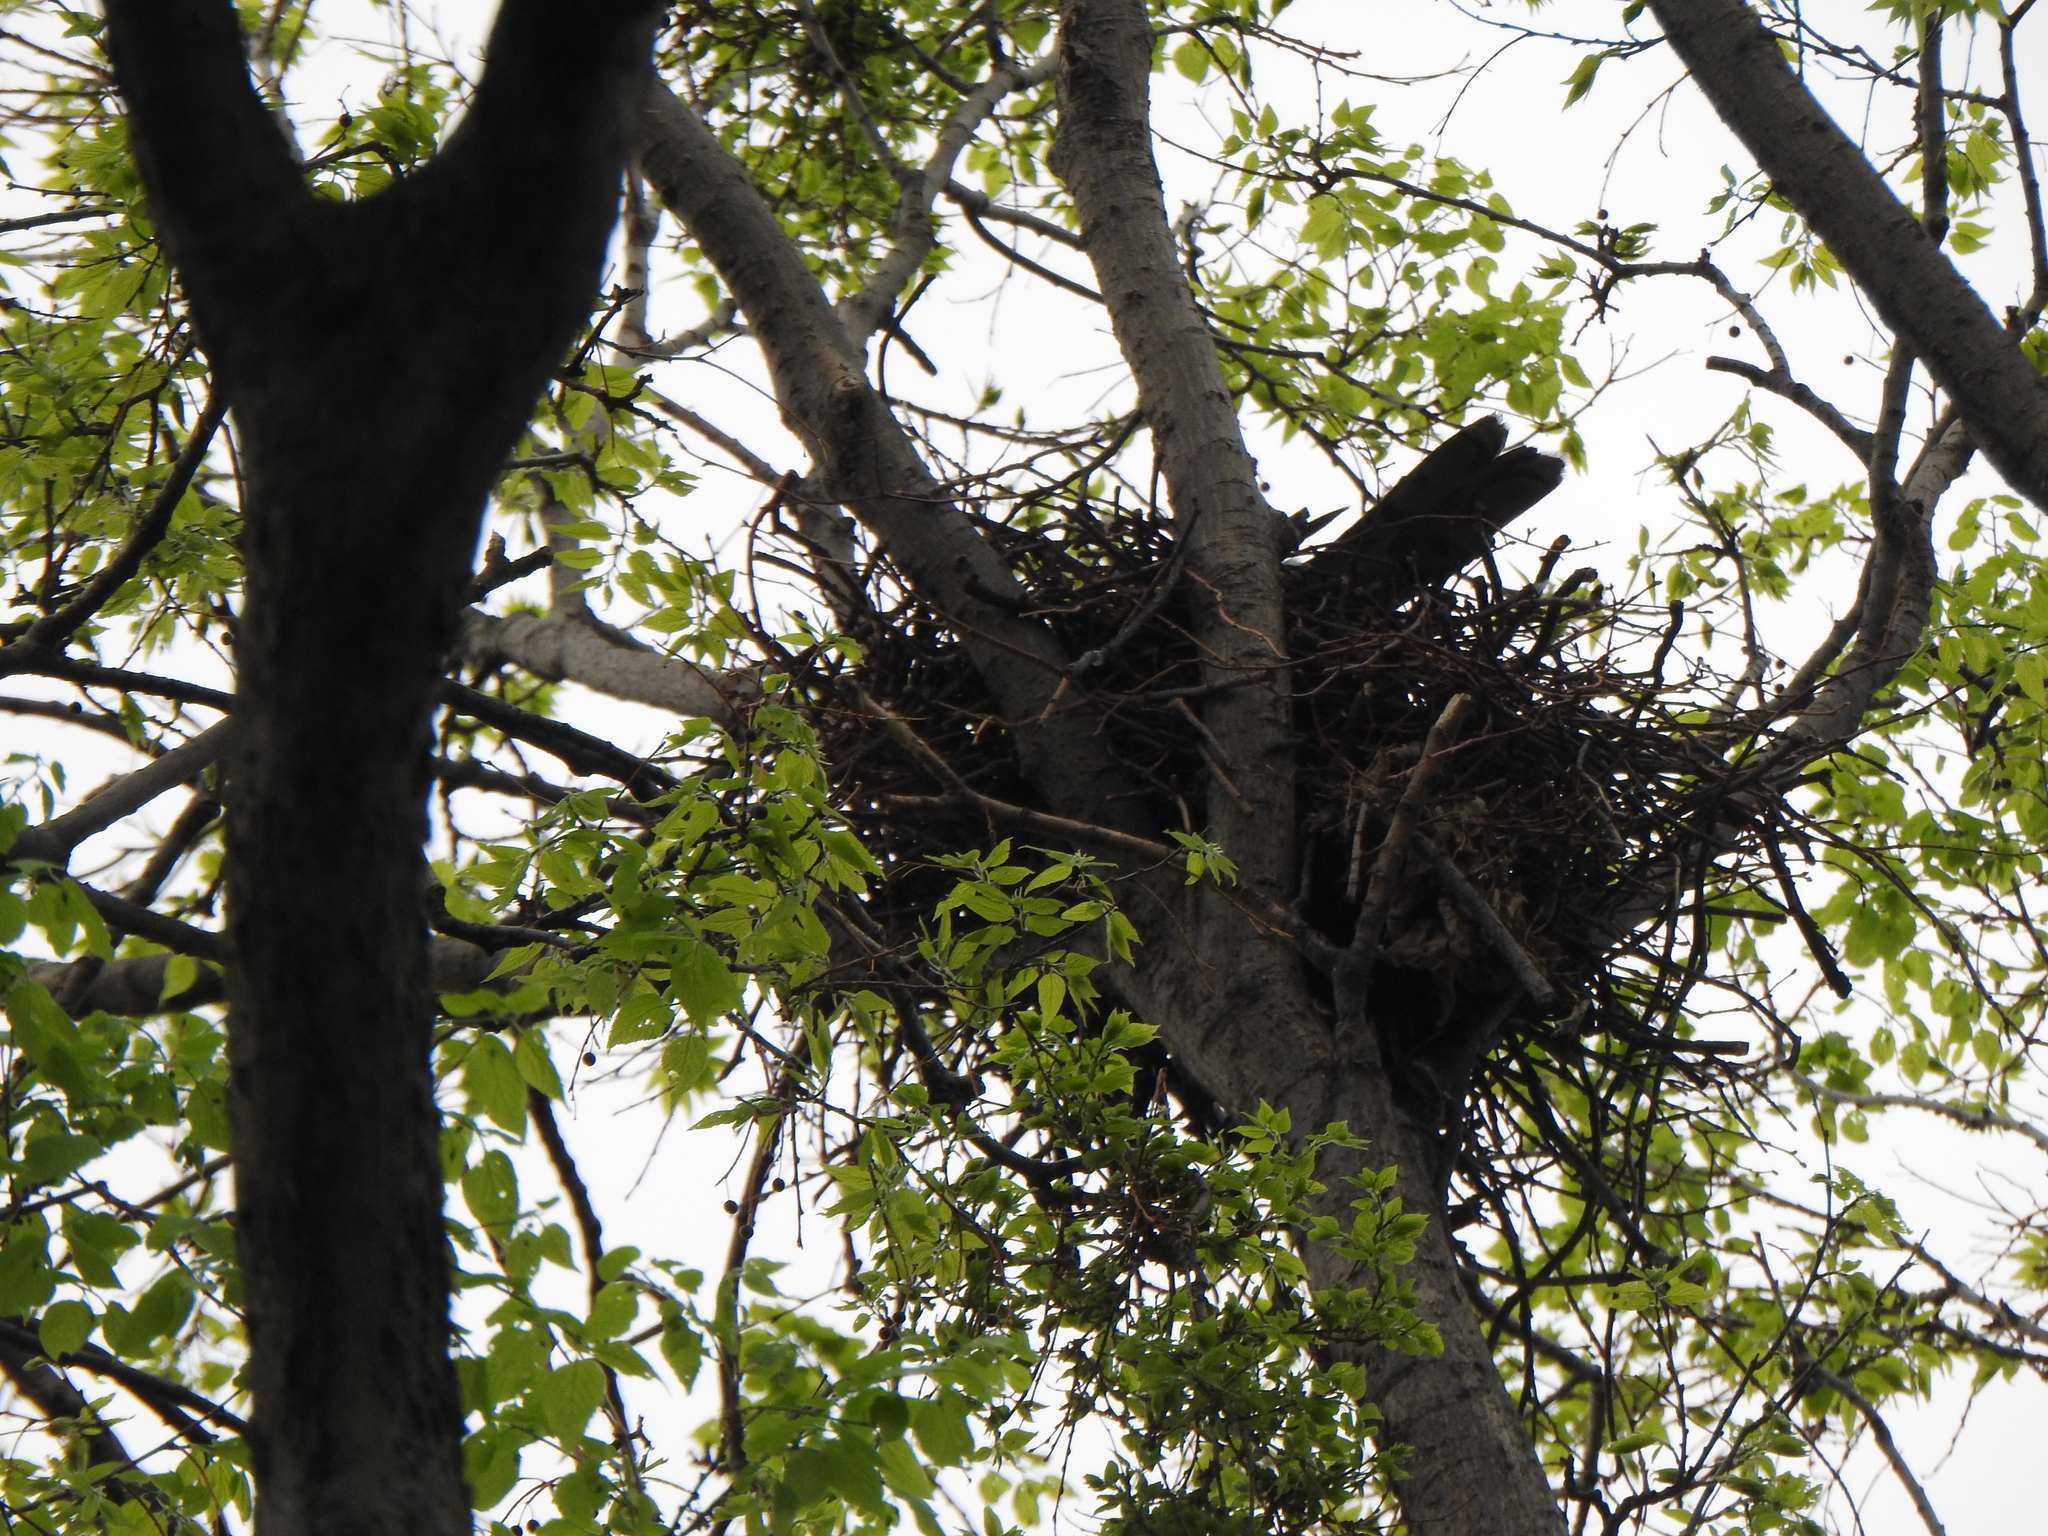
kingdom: Animalia
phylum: Chordata
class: Aves
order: Accipitriformes
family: Accipitridae
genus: Accipiter
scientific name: Accipiter cooperii
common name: Cooper's hawk
